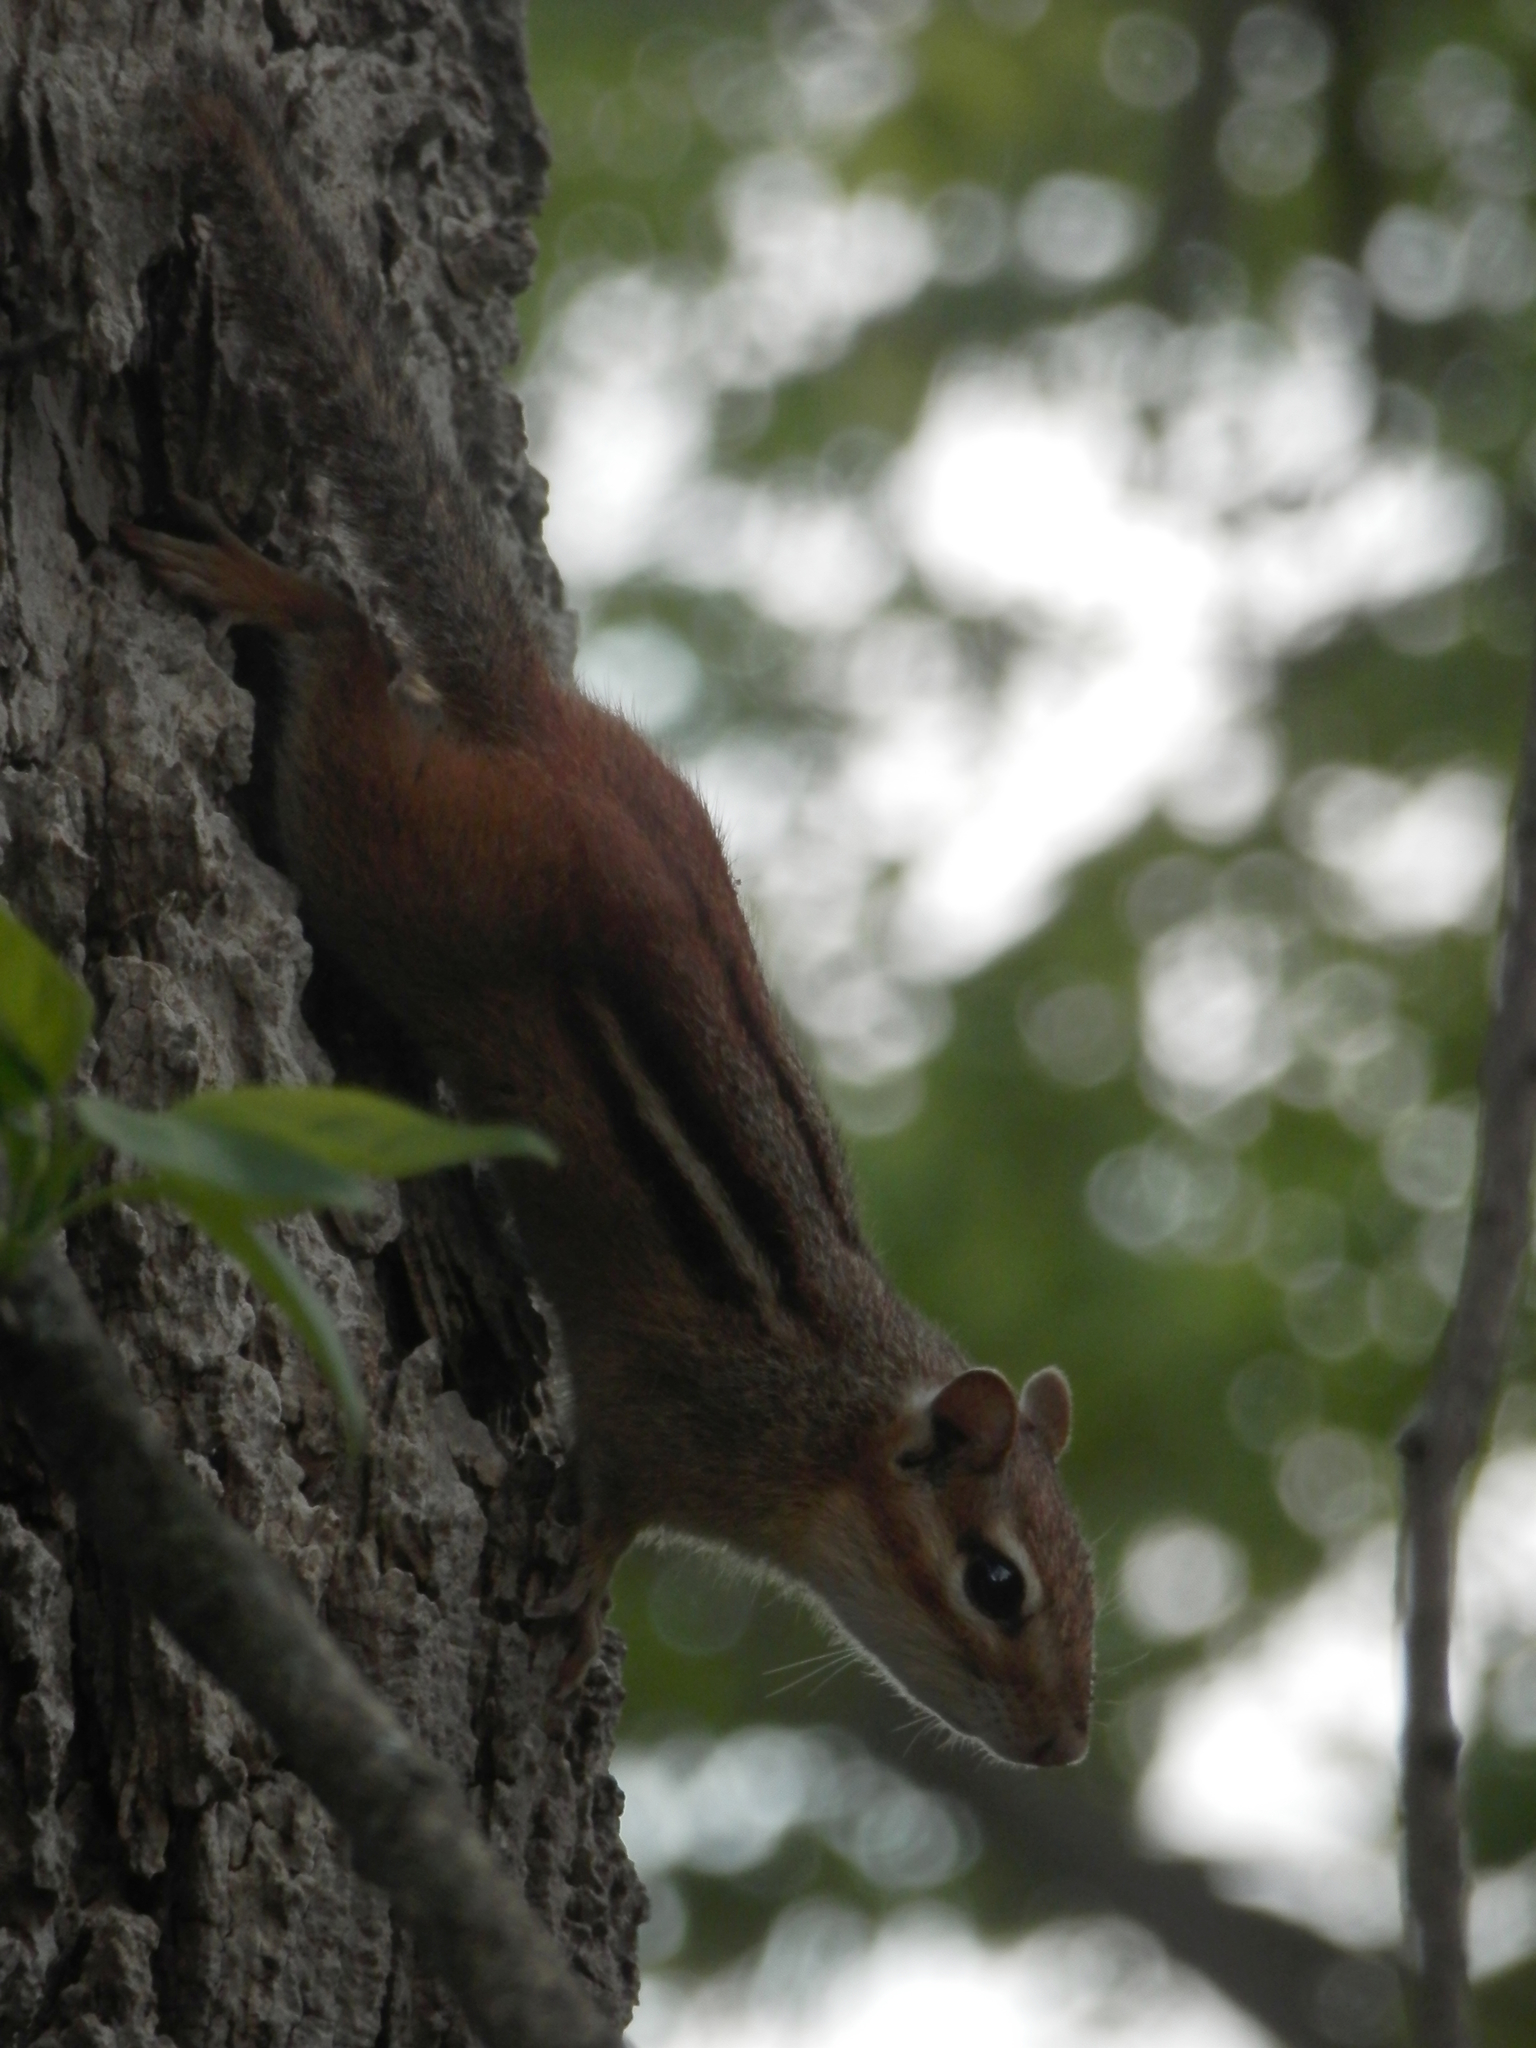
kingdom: Animalia
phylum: Chordata
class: Mammalia
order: Rodentia
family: Sciuridae
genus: Tamias
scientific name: Tamias striatus
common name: Eastern chipmunk
